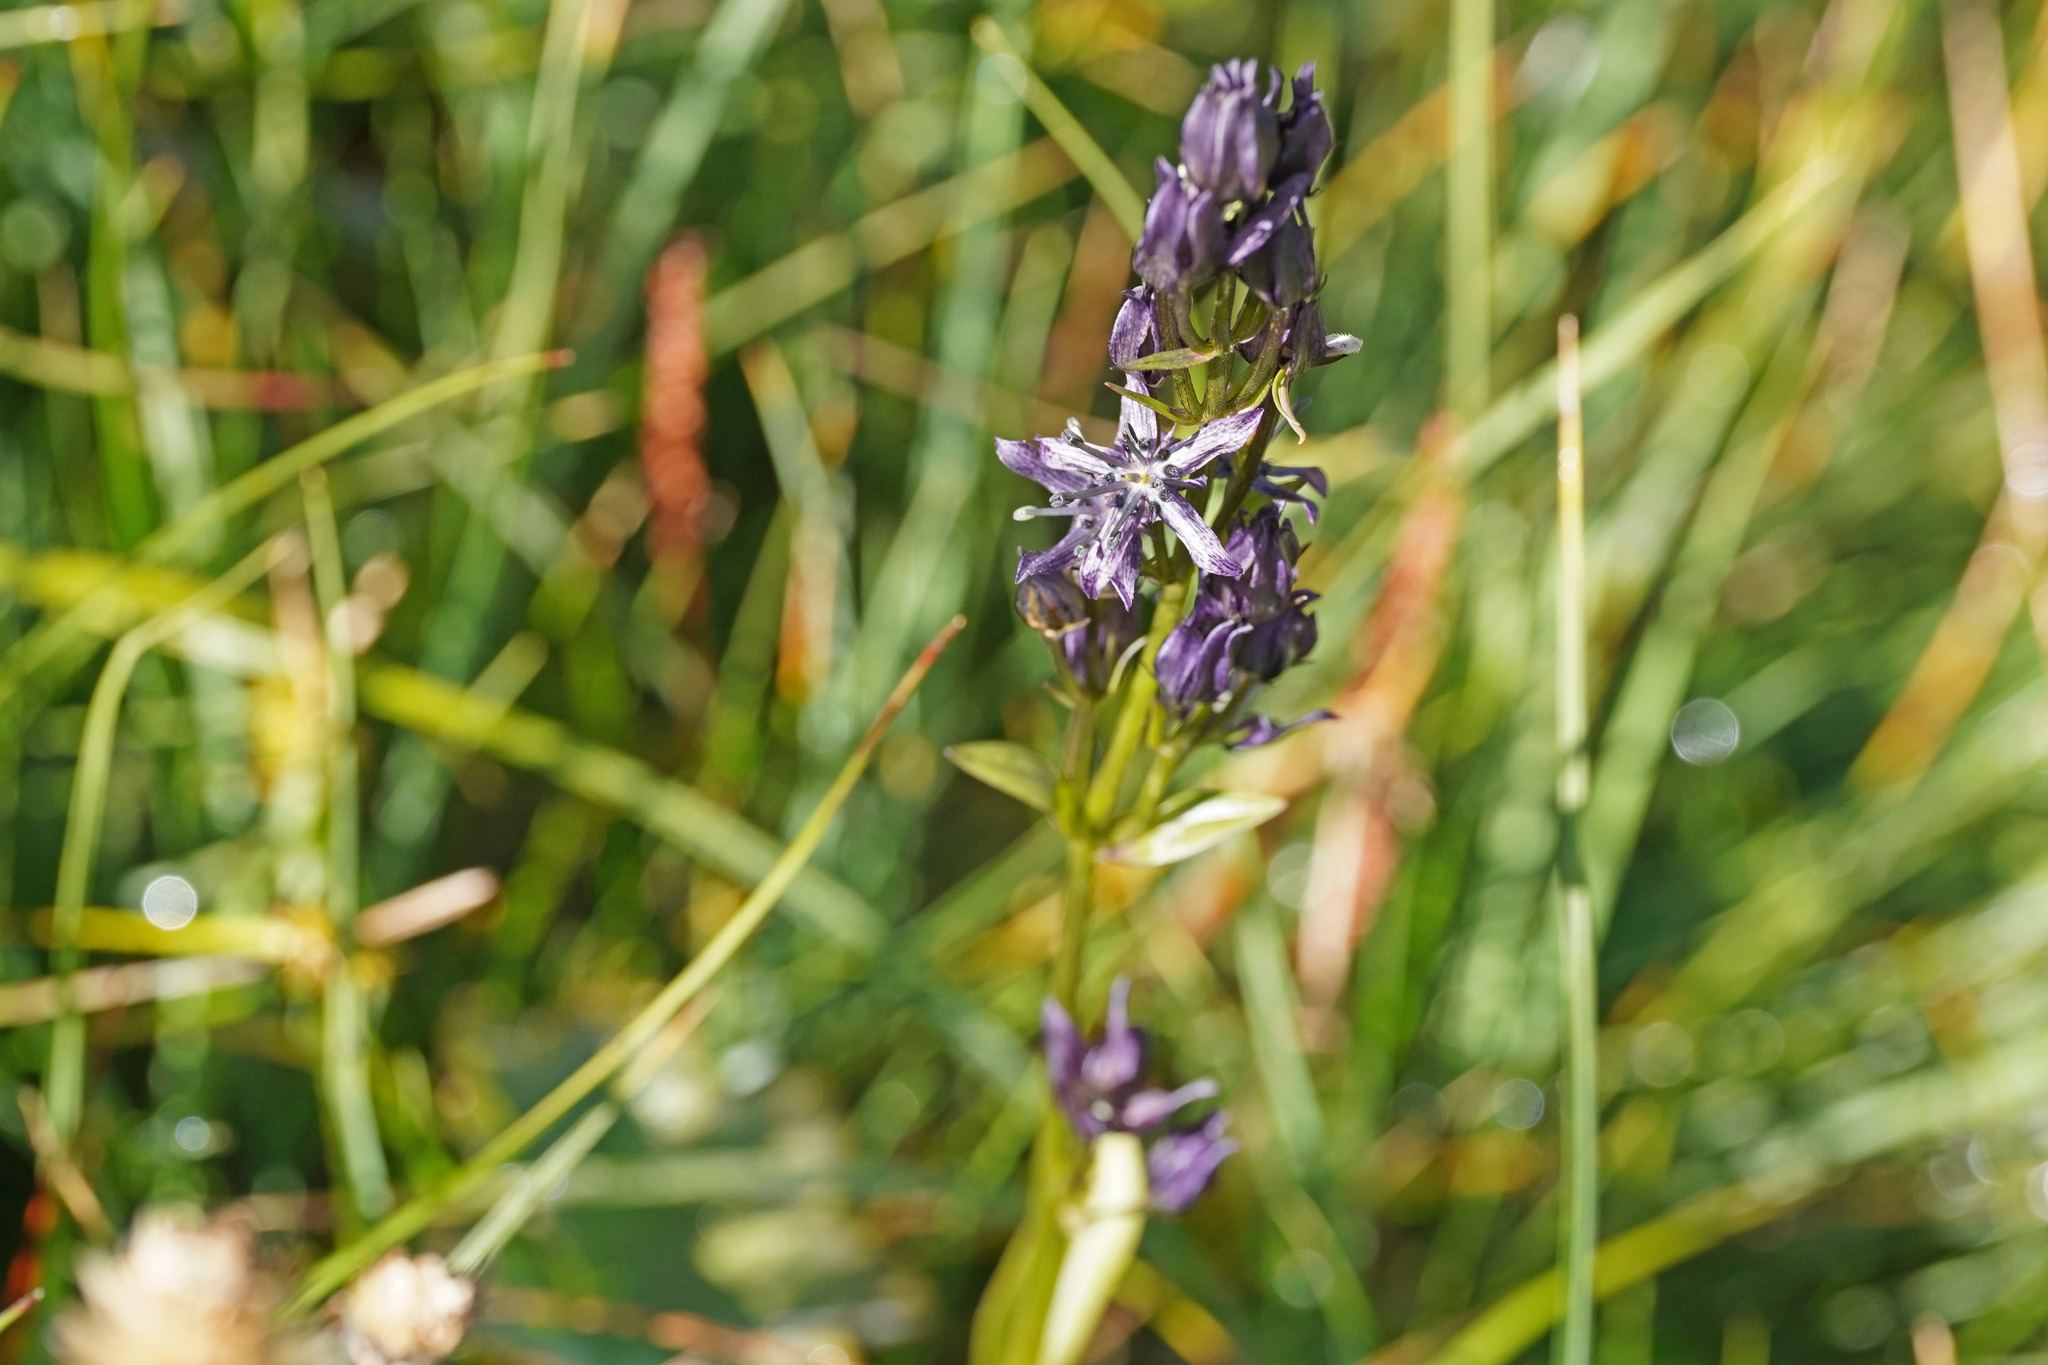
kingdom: Plantae
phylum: Tracheophyta
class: Magnoliopsida
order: Gentianales
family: Gentianaceae
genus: Swertia
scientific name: Swertia perennis
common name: Alpine bog swertia
